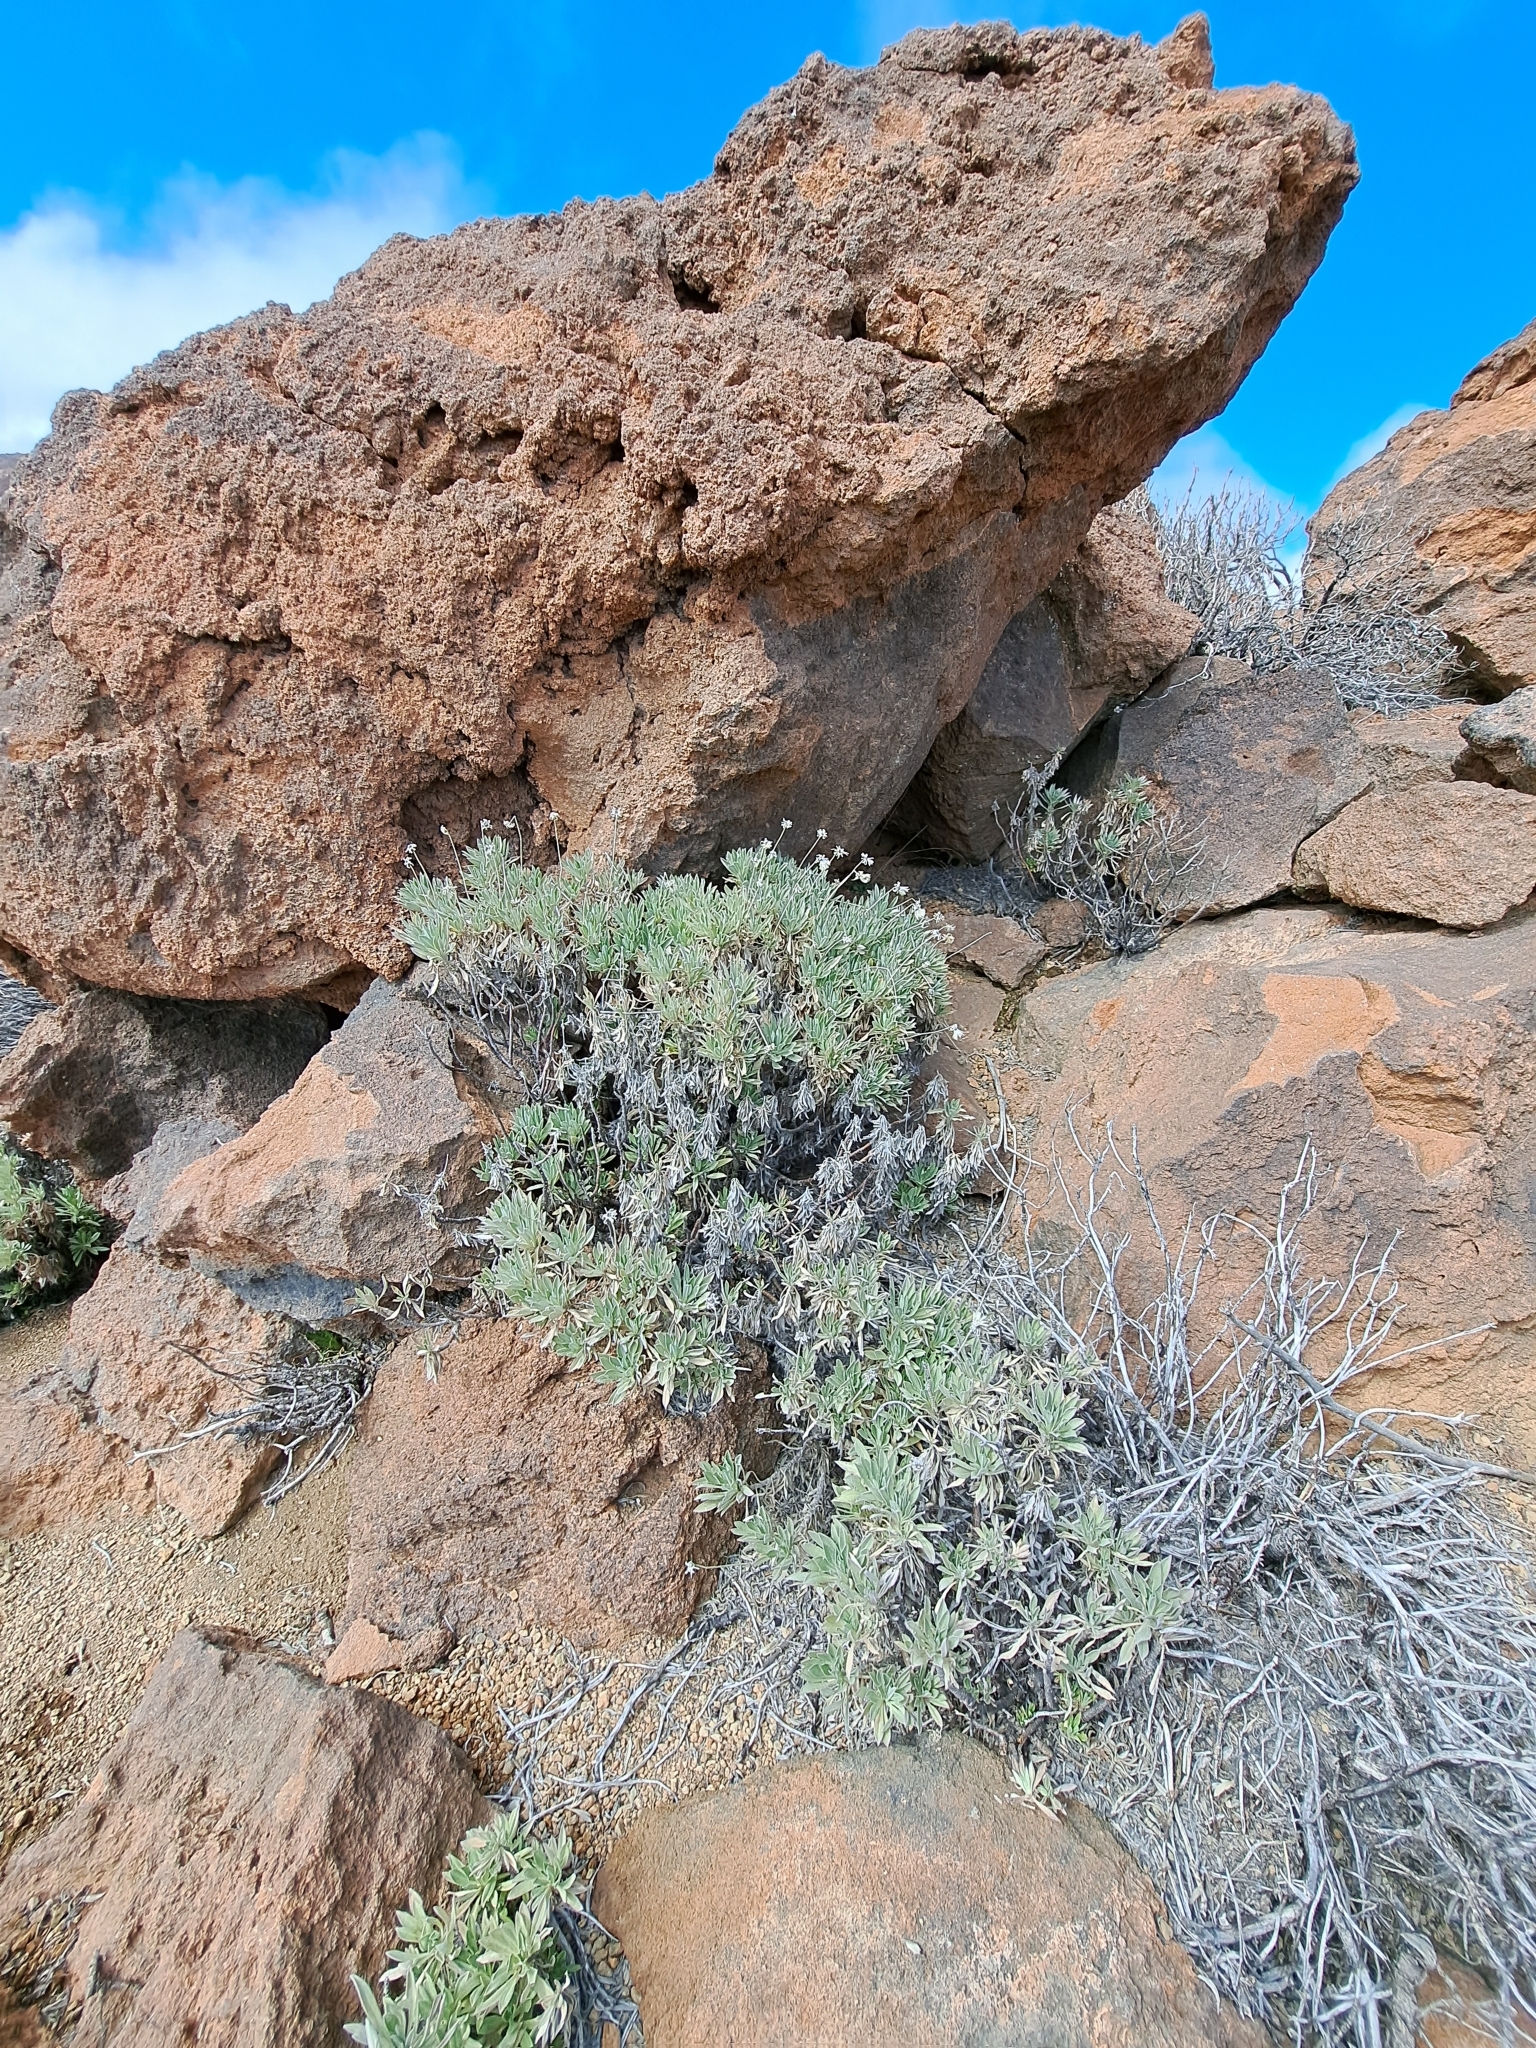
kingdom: Plantae
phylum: Tracheophyta
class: Magnoliopsida
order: Dipsacales
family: Caprifoliaceae
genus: Pterocephalus
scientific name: Pterocephalus lasiospermus
